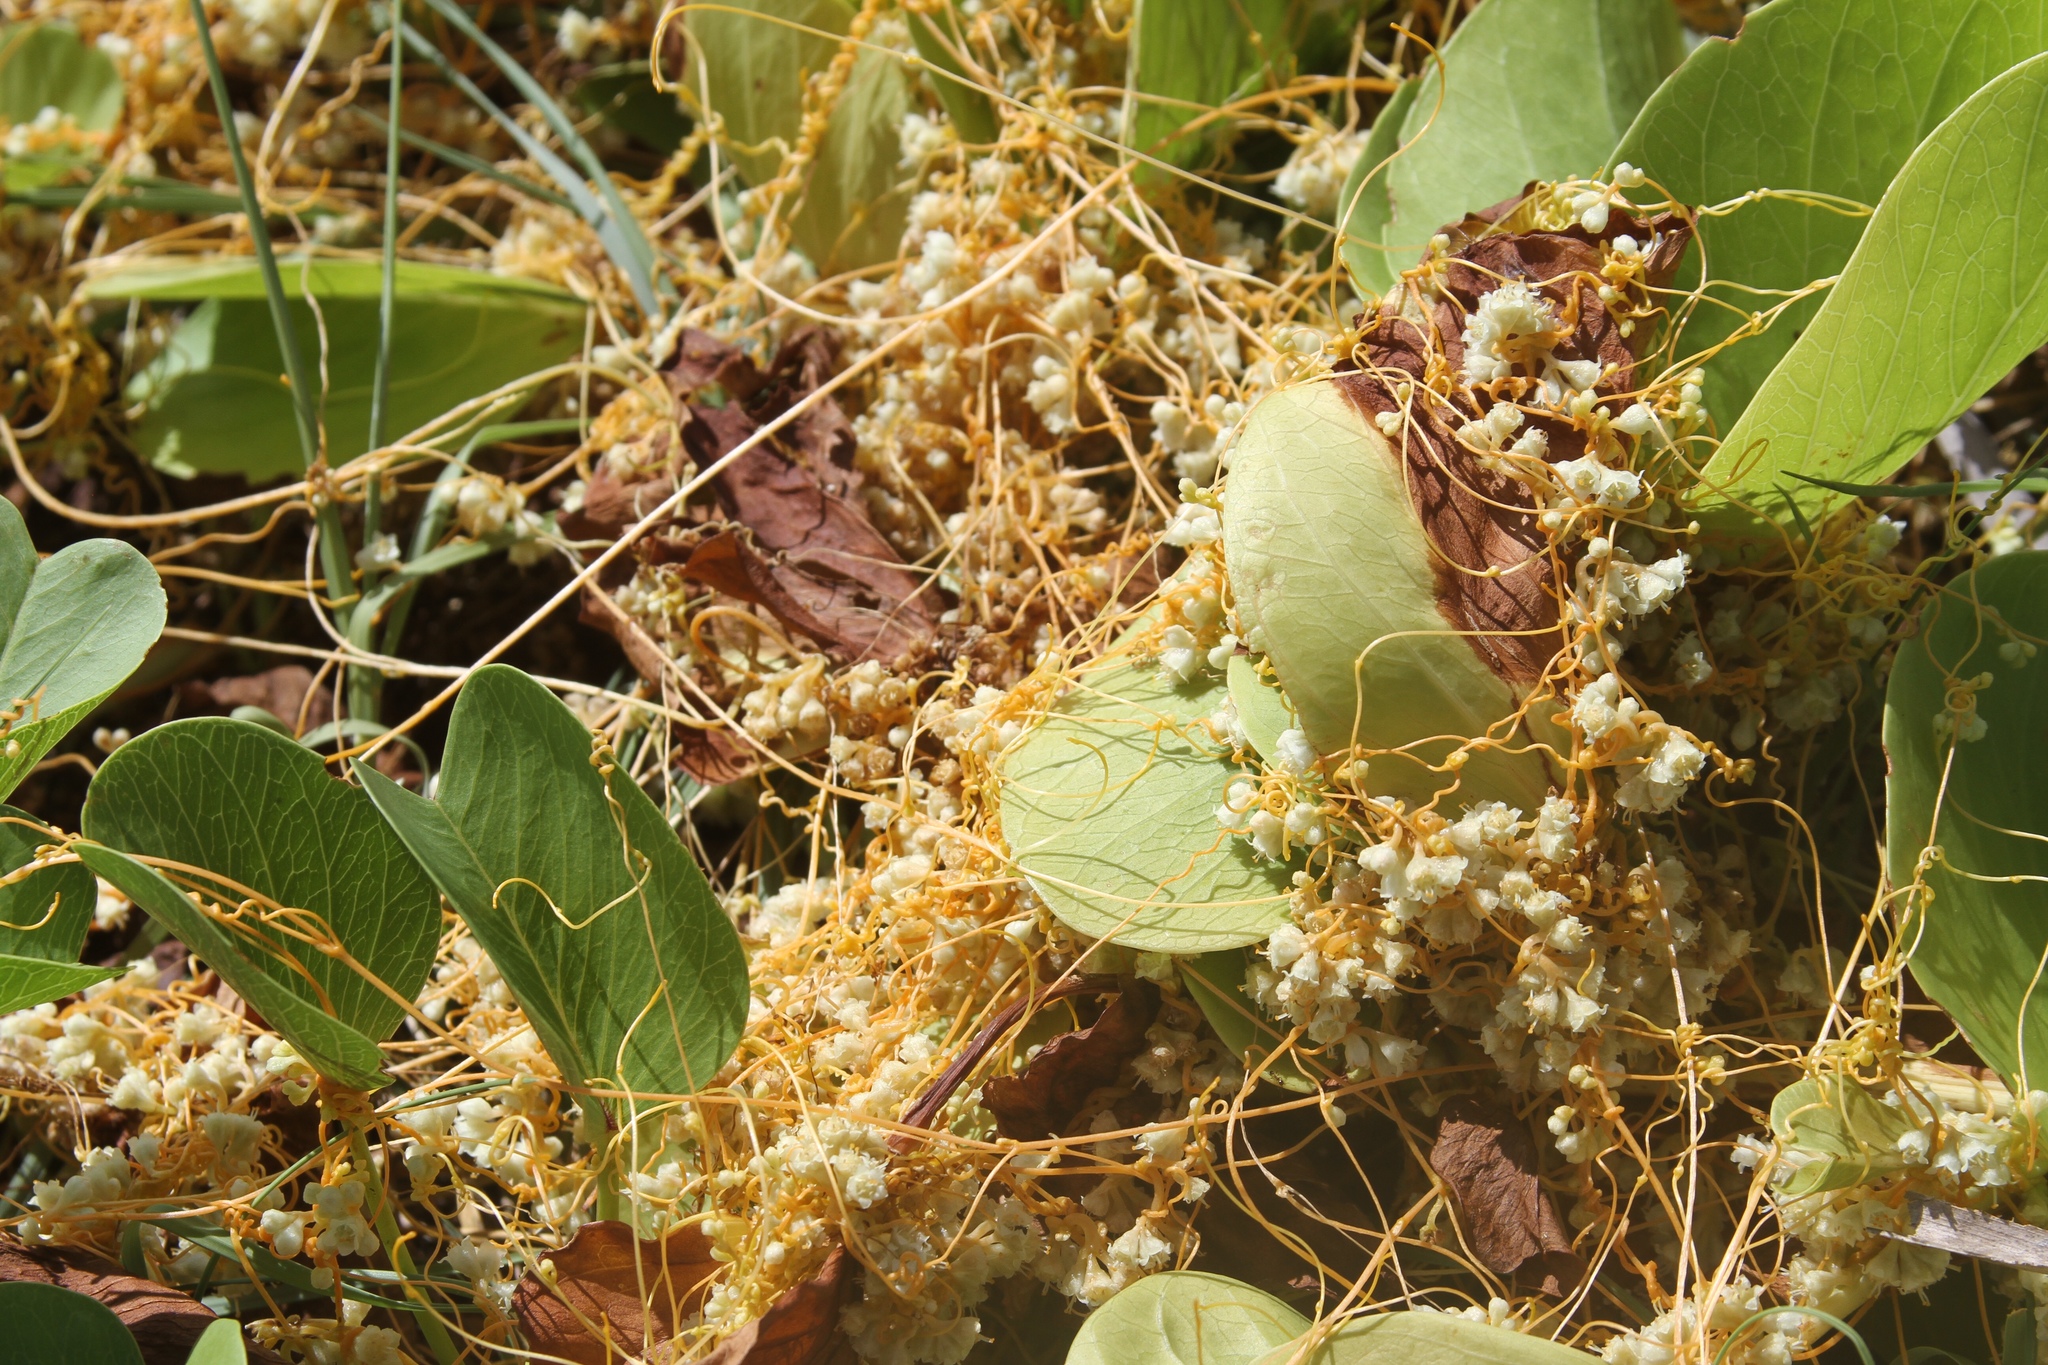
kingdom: Plantae
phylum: Tracheophyta
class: Magnoliopsida
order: Solanales
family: Convolvulaceae
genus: Cuscuta
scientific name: Cuscuta campestris
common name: Yellow dodder
